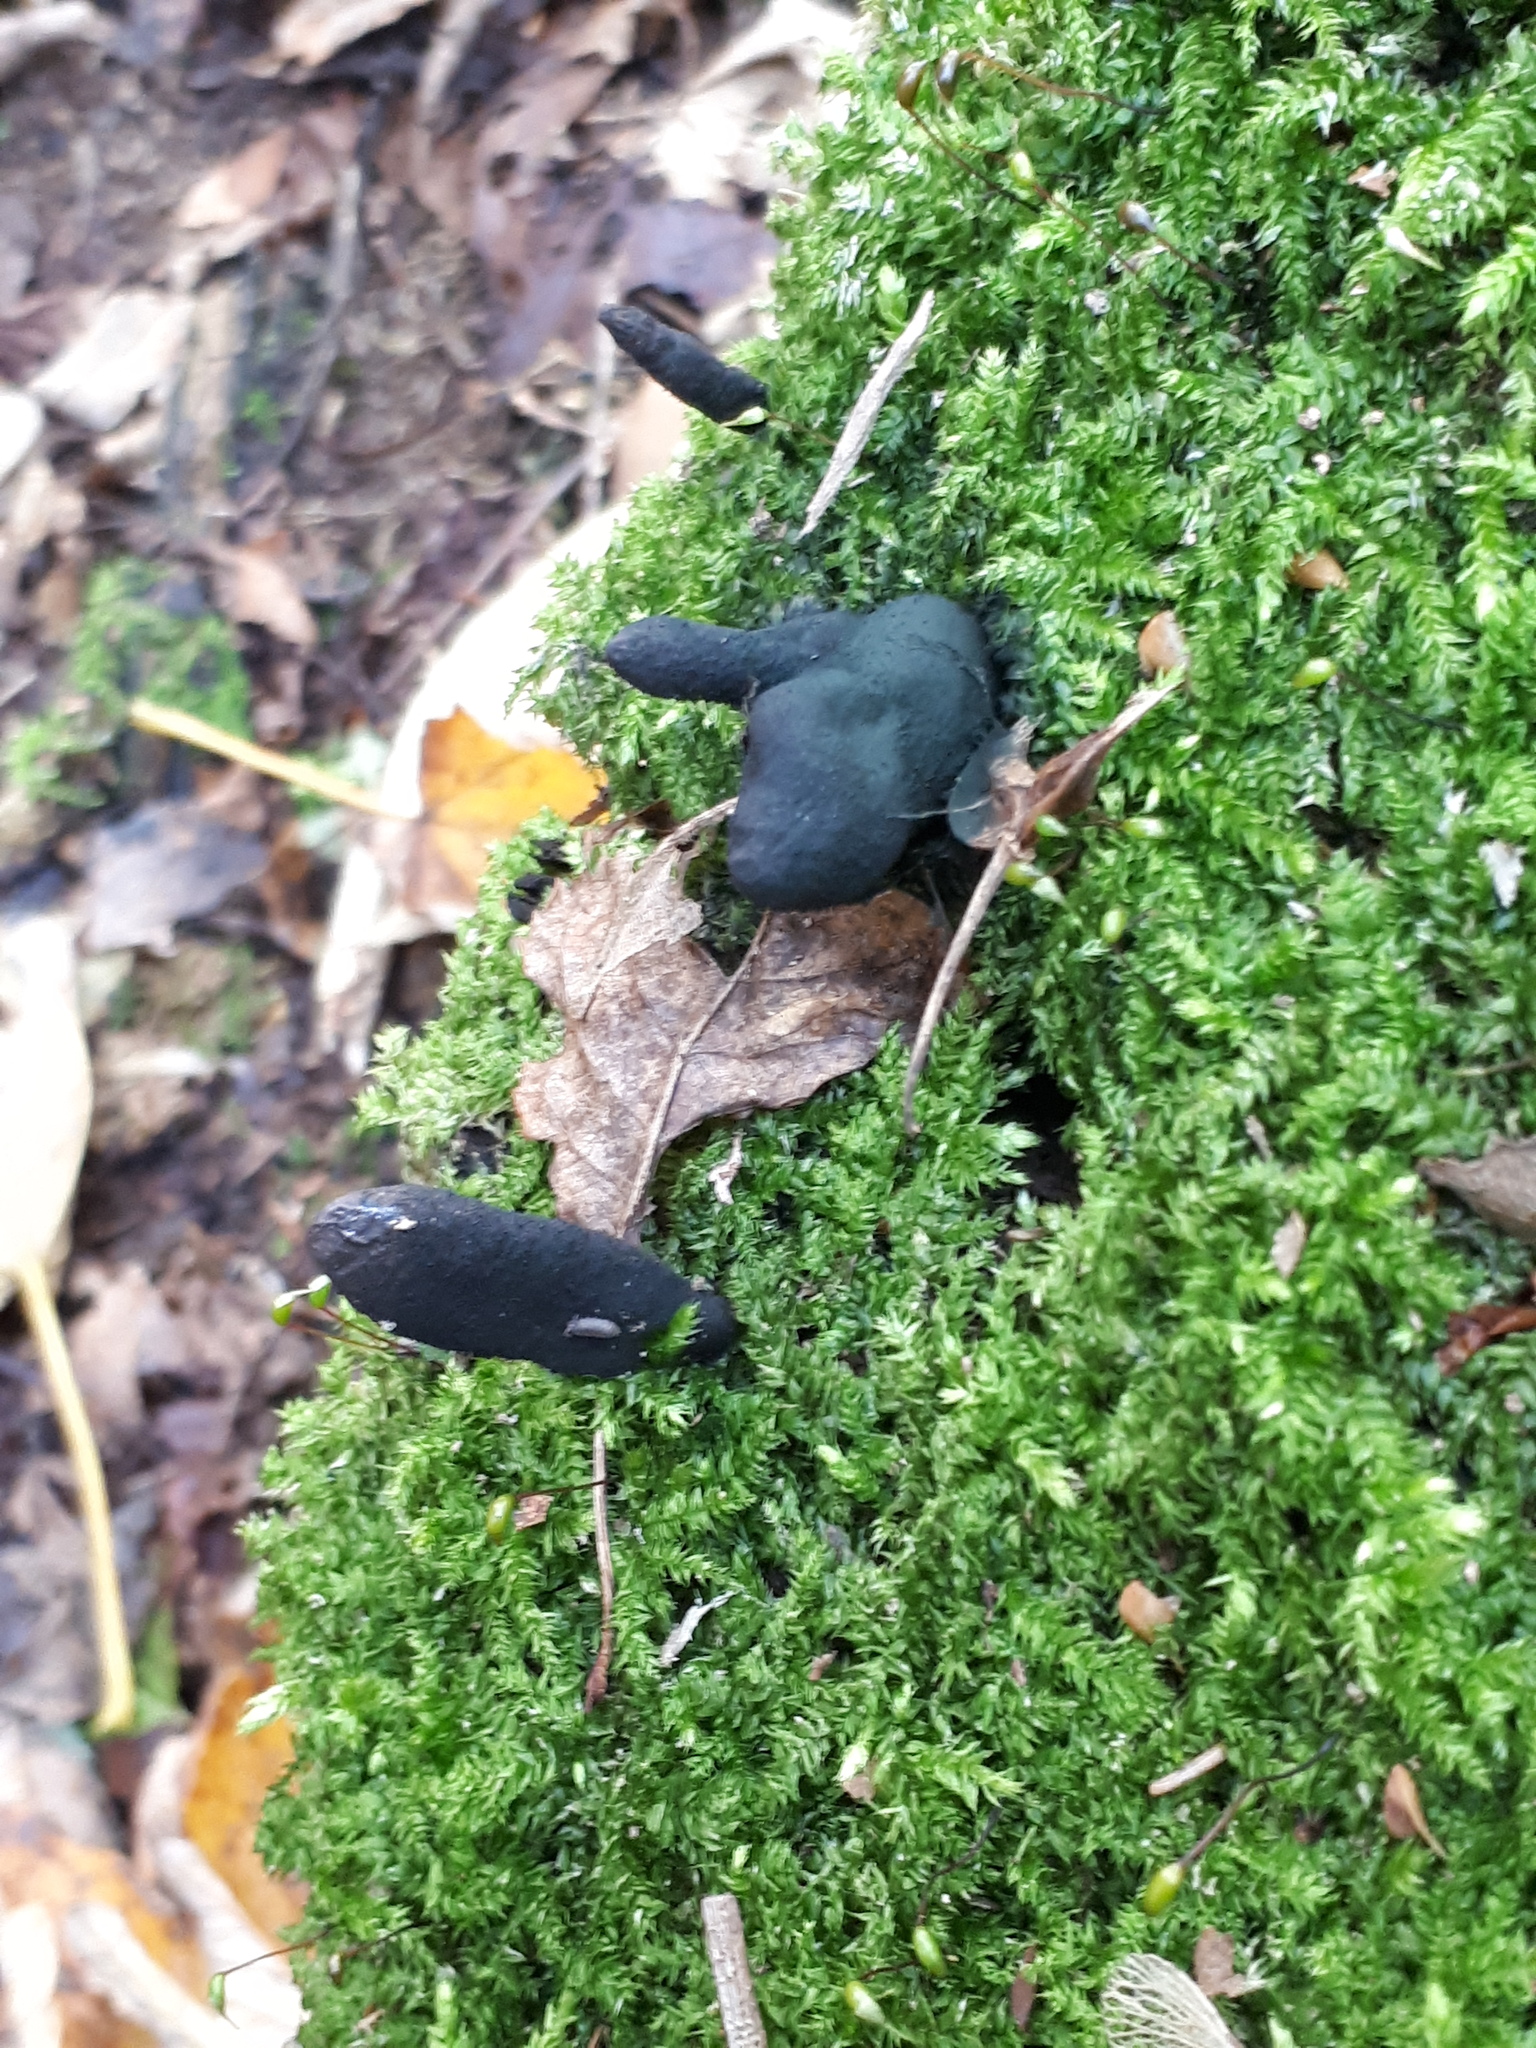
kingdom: Fungi
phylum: Ascomycota
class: Sordariomycetes
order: Xylariales
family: Xylariaceae
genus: Xylaria
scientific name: Xylaria polymorpha
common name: Dead man's fingers
